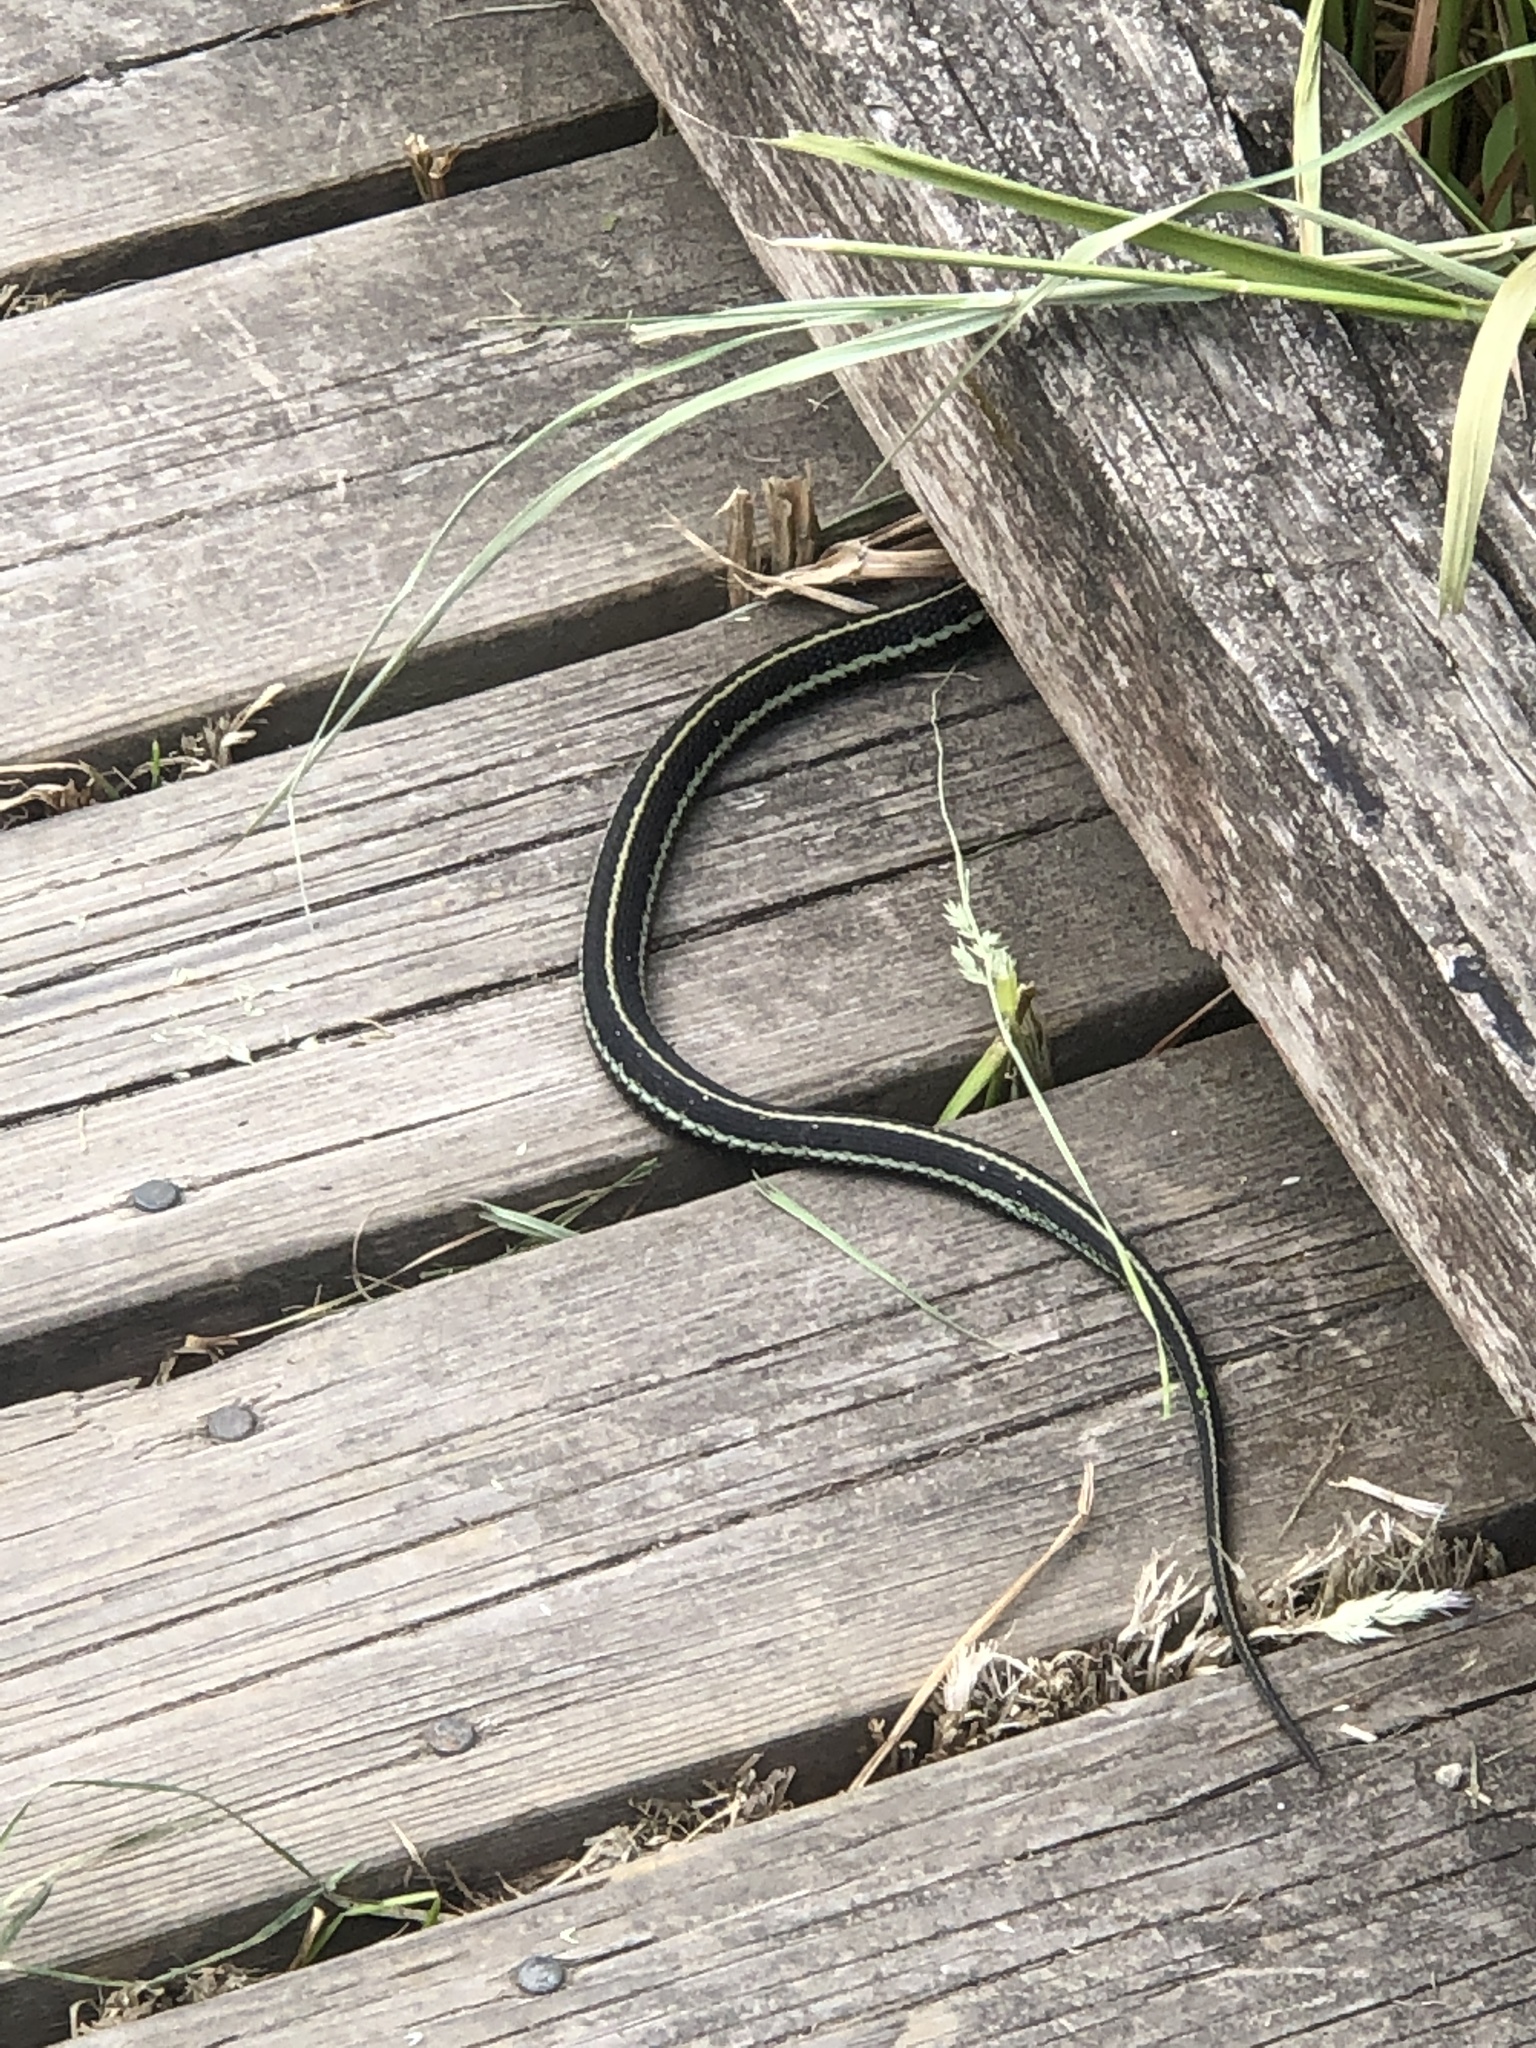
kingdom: Animalia
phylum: Chordata
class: Squamata
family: Colubridae
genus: Thamnophis
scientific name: Thamnophis sirtalis
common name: Common garter snake
